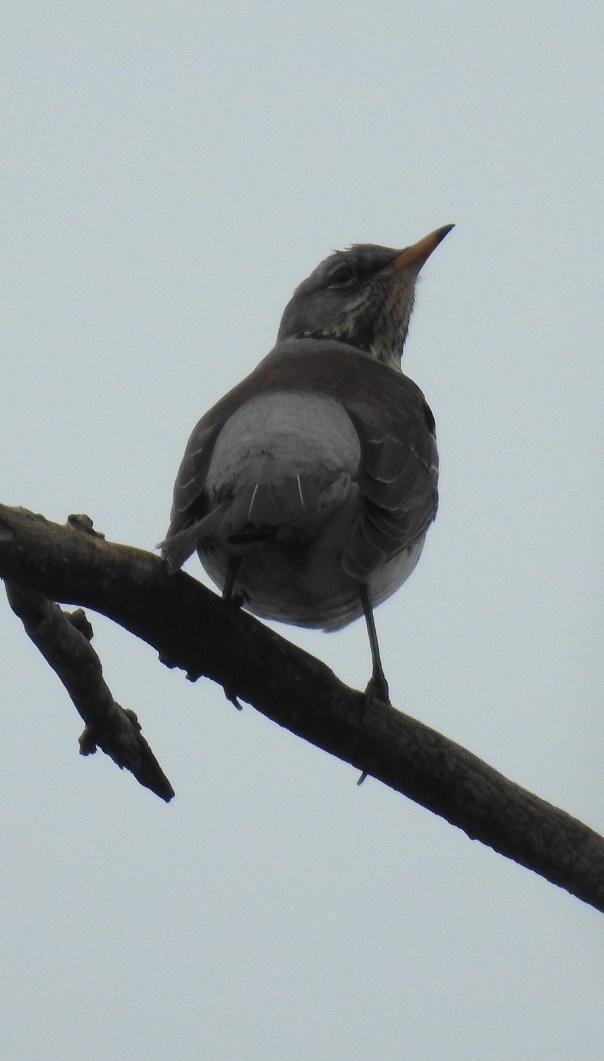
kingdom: Animalia
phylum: Chordata
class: Aves
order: Passeriformes
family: Turdidae
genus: Turdus
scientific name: Turdus pilaris
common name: Fieldfare
